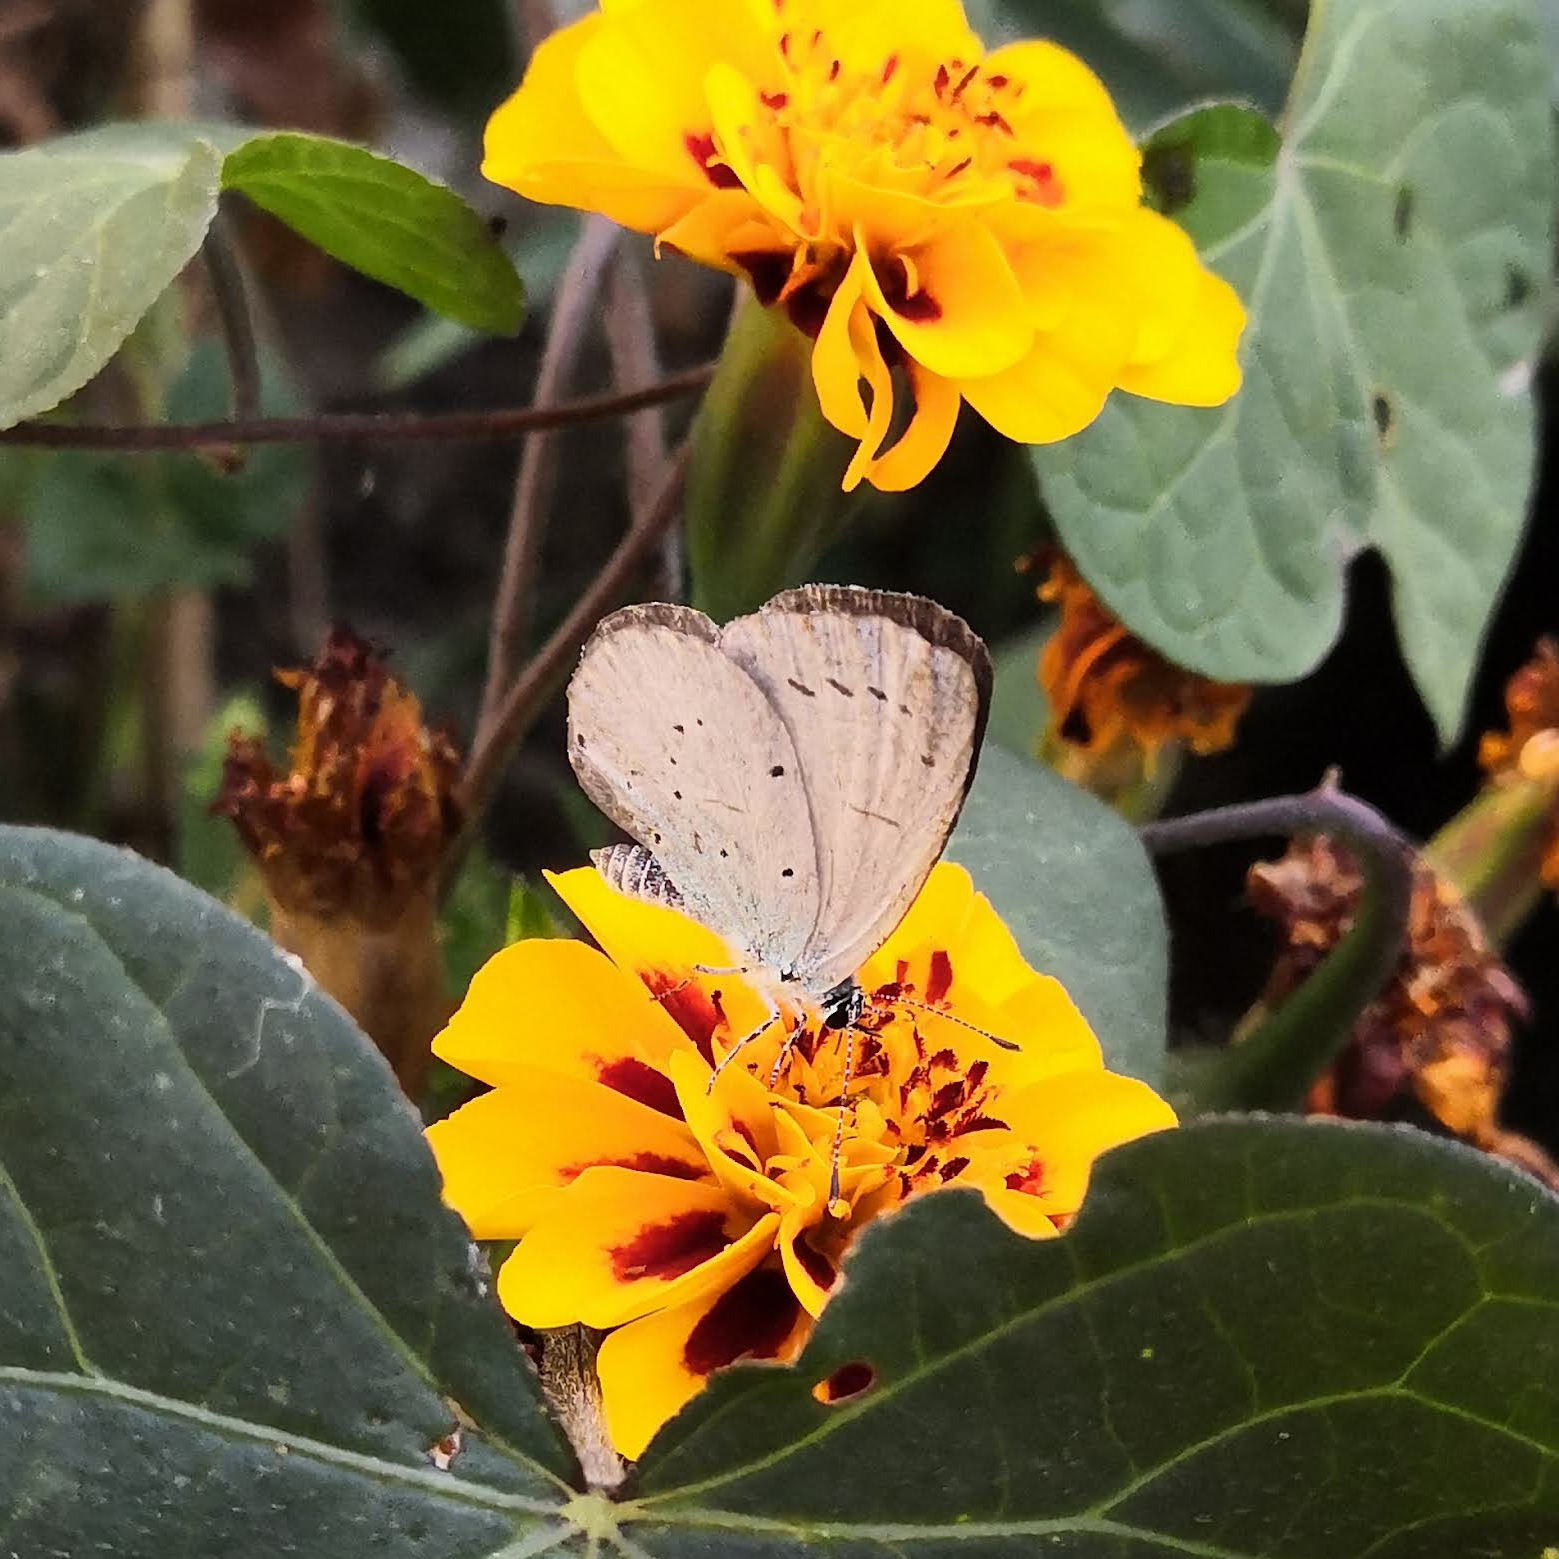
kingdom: Animalia
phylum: Arthropoda
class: Insecta
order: Lepidoptera
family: Lycaenidae
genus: Celastrina
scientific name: Celastrina argiolus
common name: Holly blue
